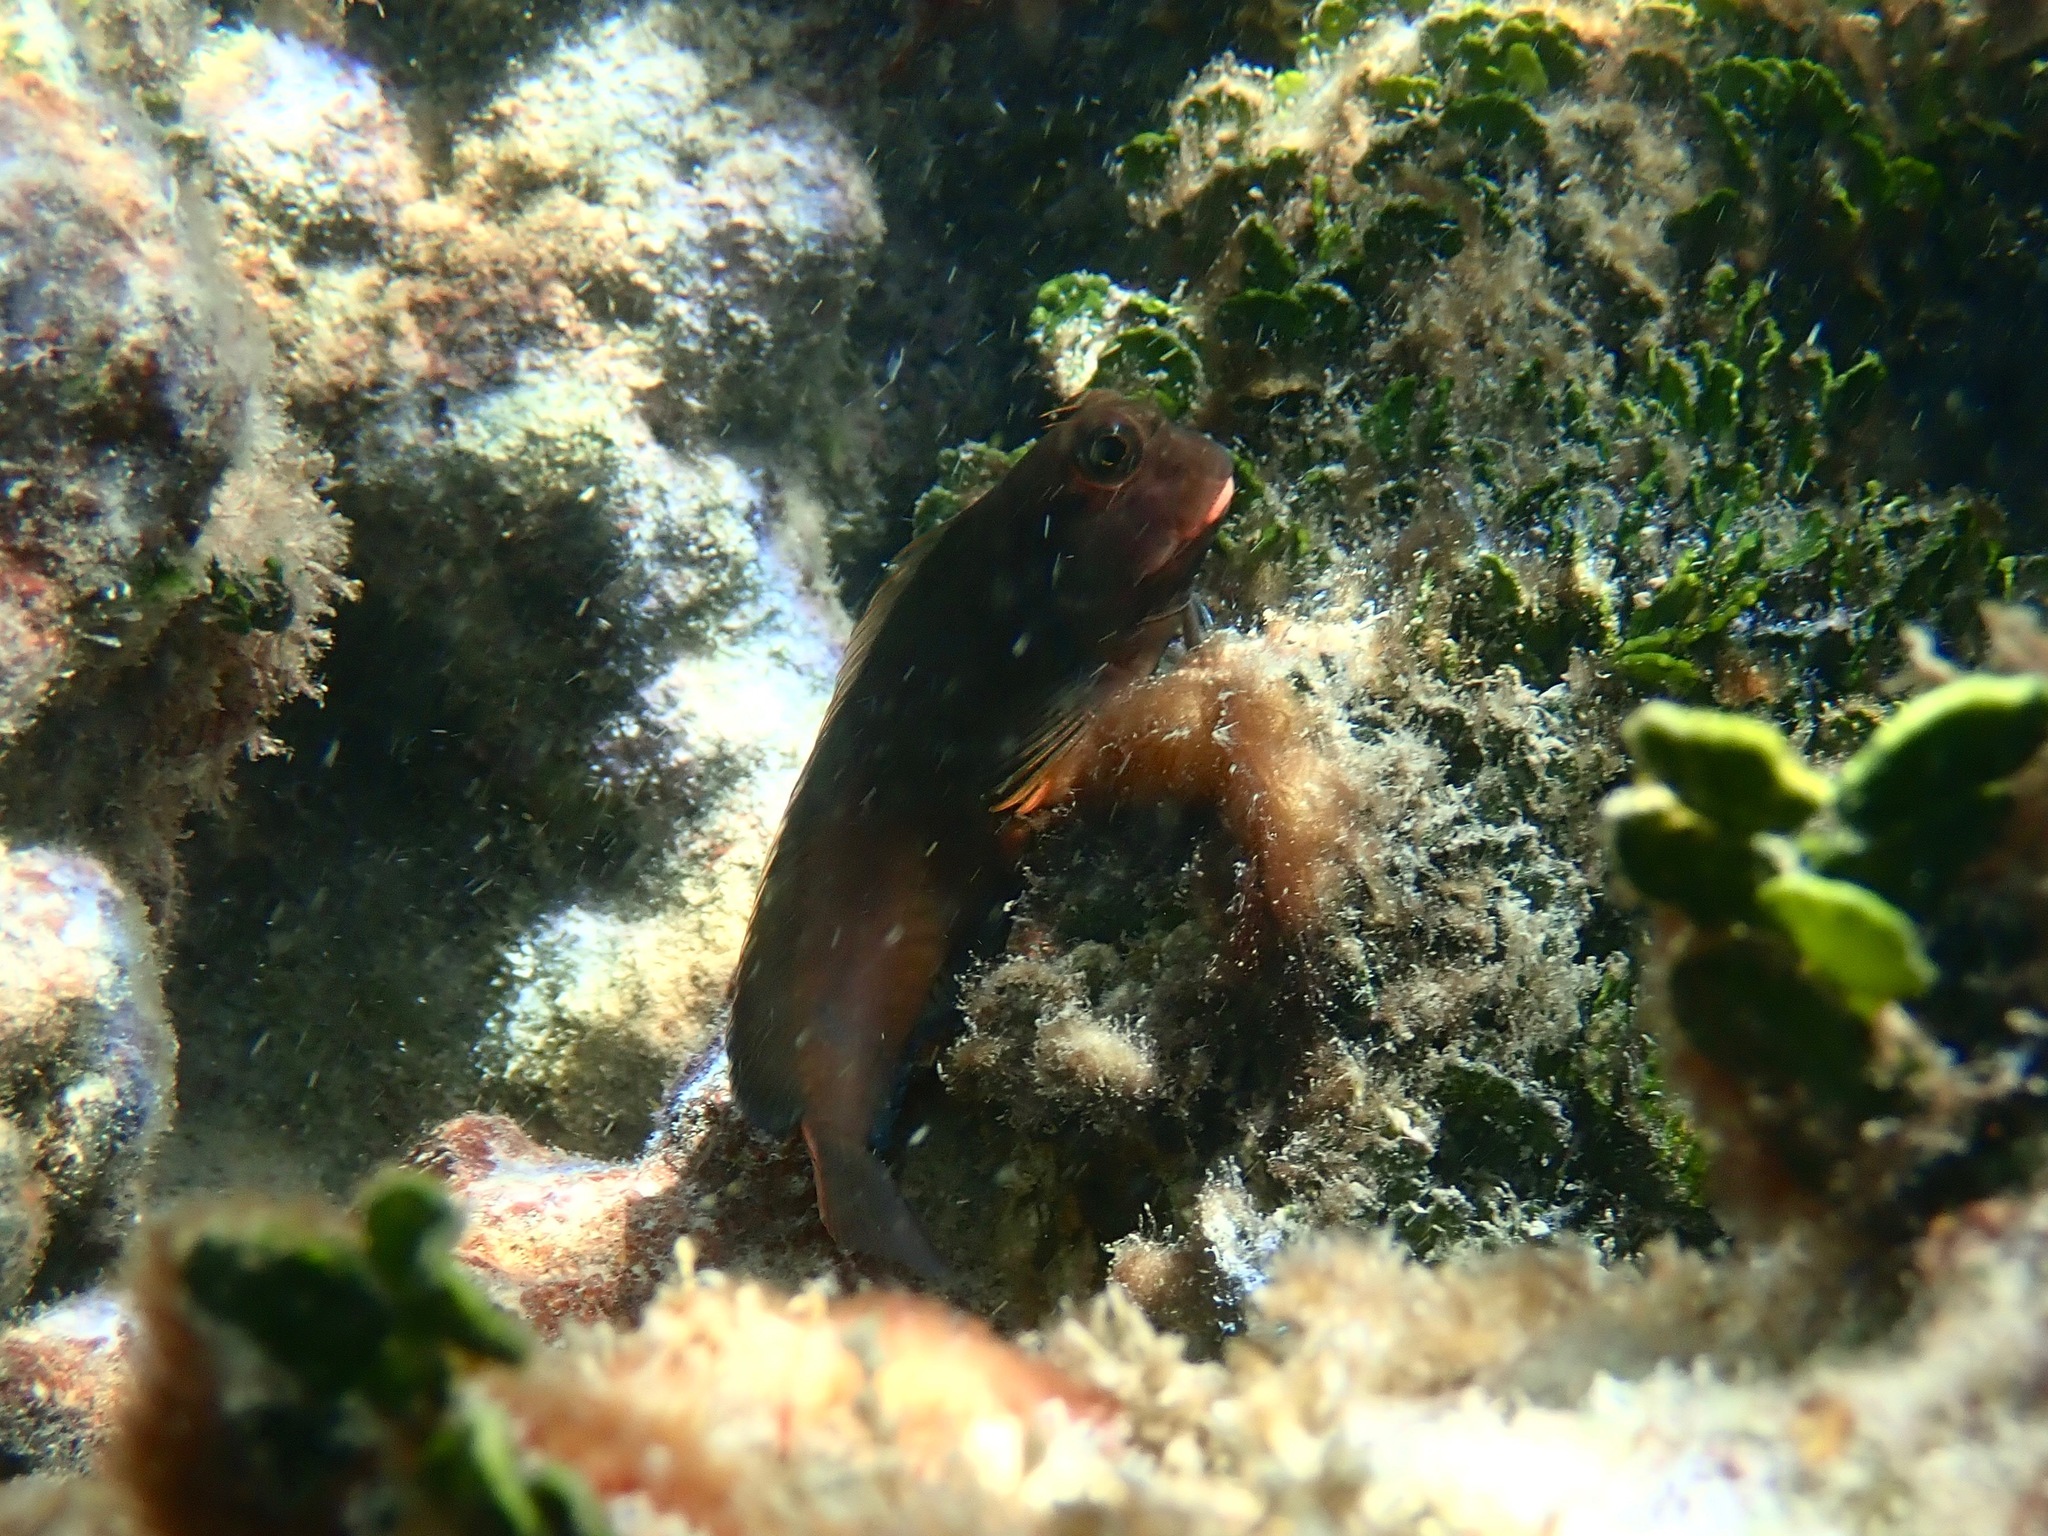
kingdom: Animalia
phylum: Chordata
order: Perciformes
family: Blenniidae
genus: Ophioblennius
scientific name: Ophioblennius macclurei
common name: Redlip blenny
